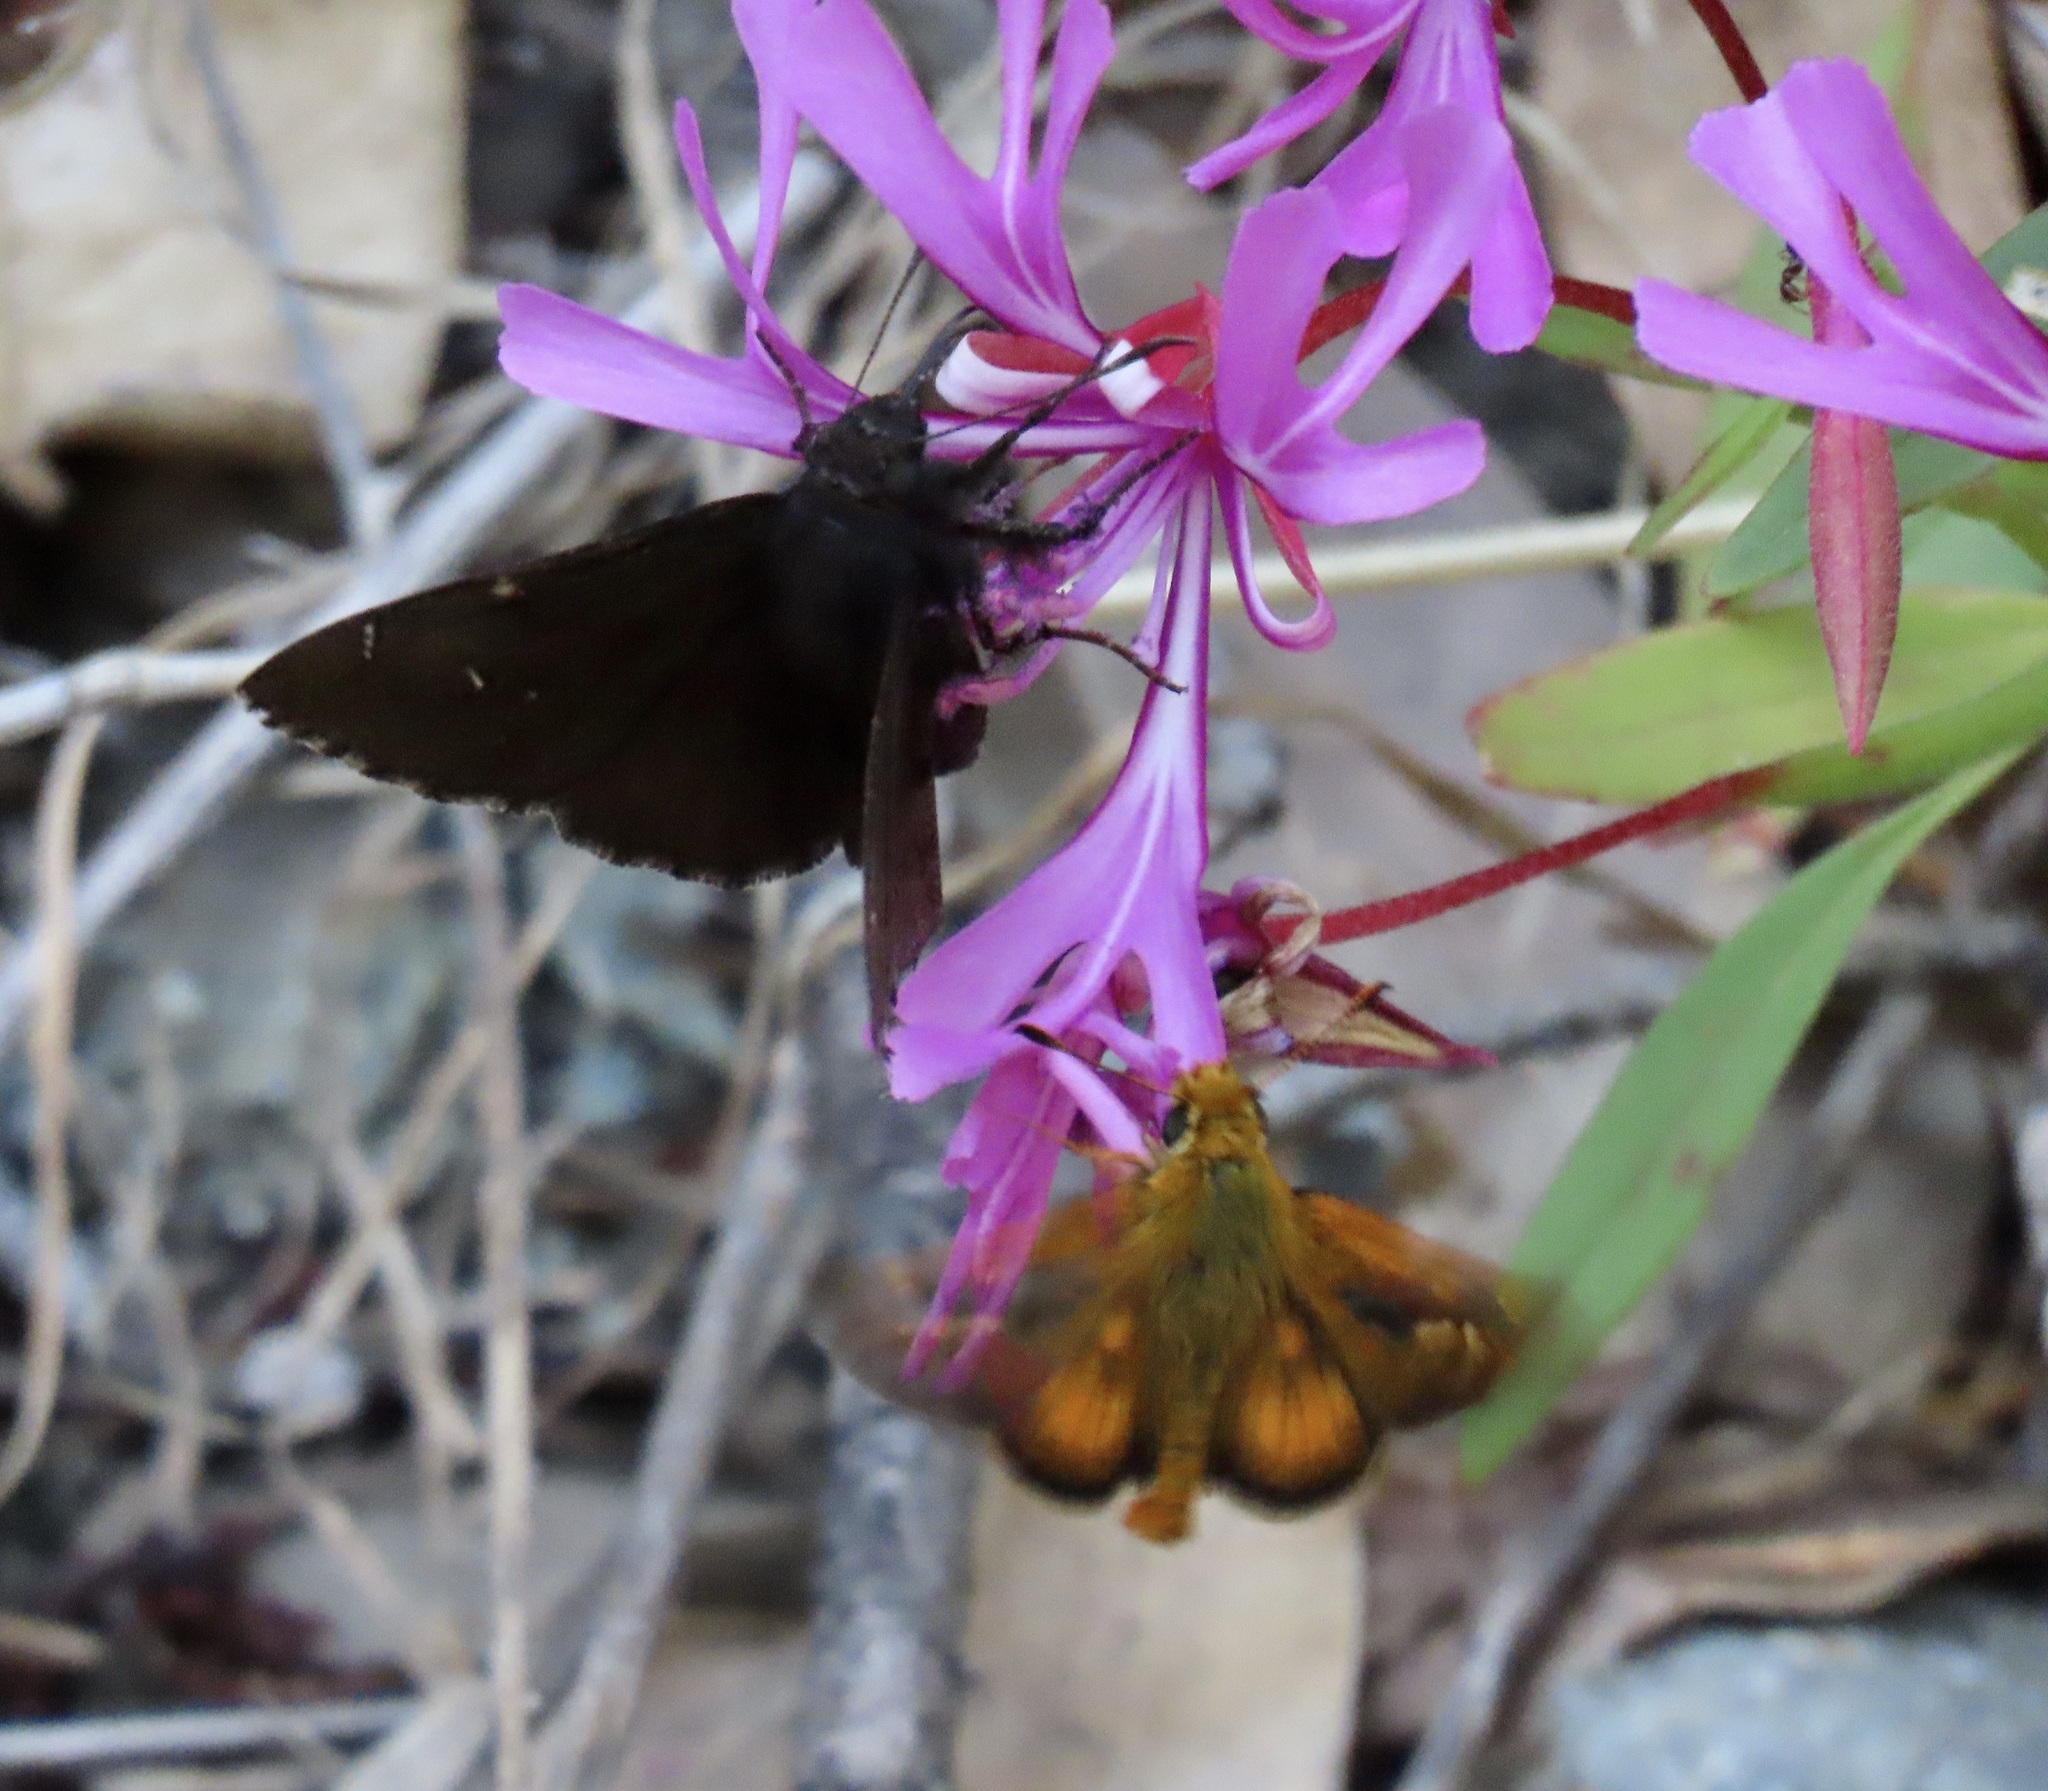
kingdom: Animalia
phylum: Arthropoda
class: Insecta
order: Lepidoptera
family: Hesperiidae
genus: Thorybes
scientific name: Thorybes pylades
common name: Northern cloudywing
